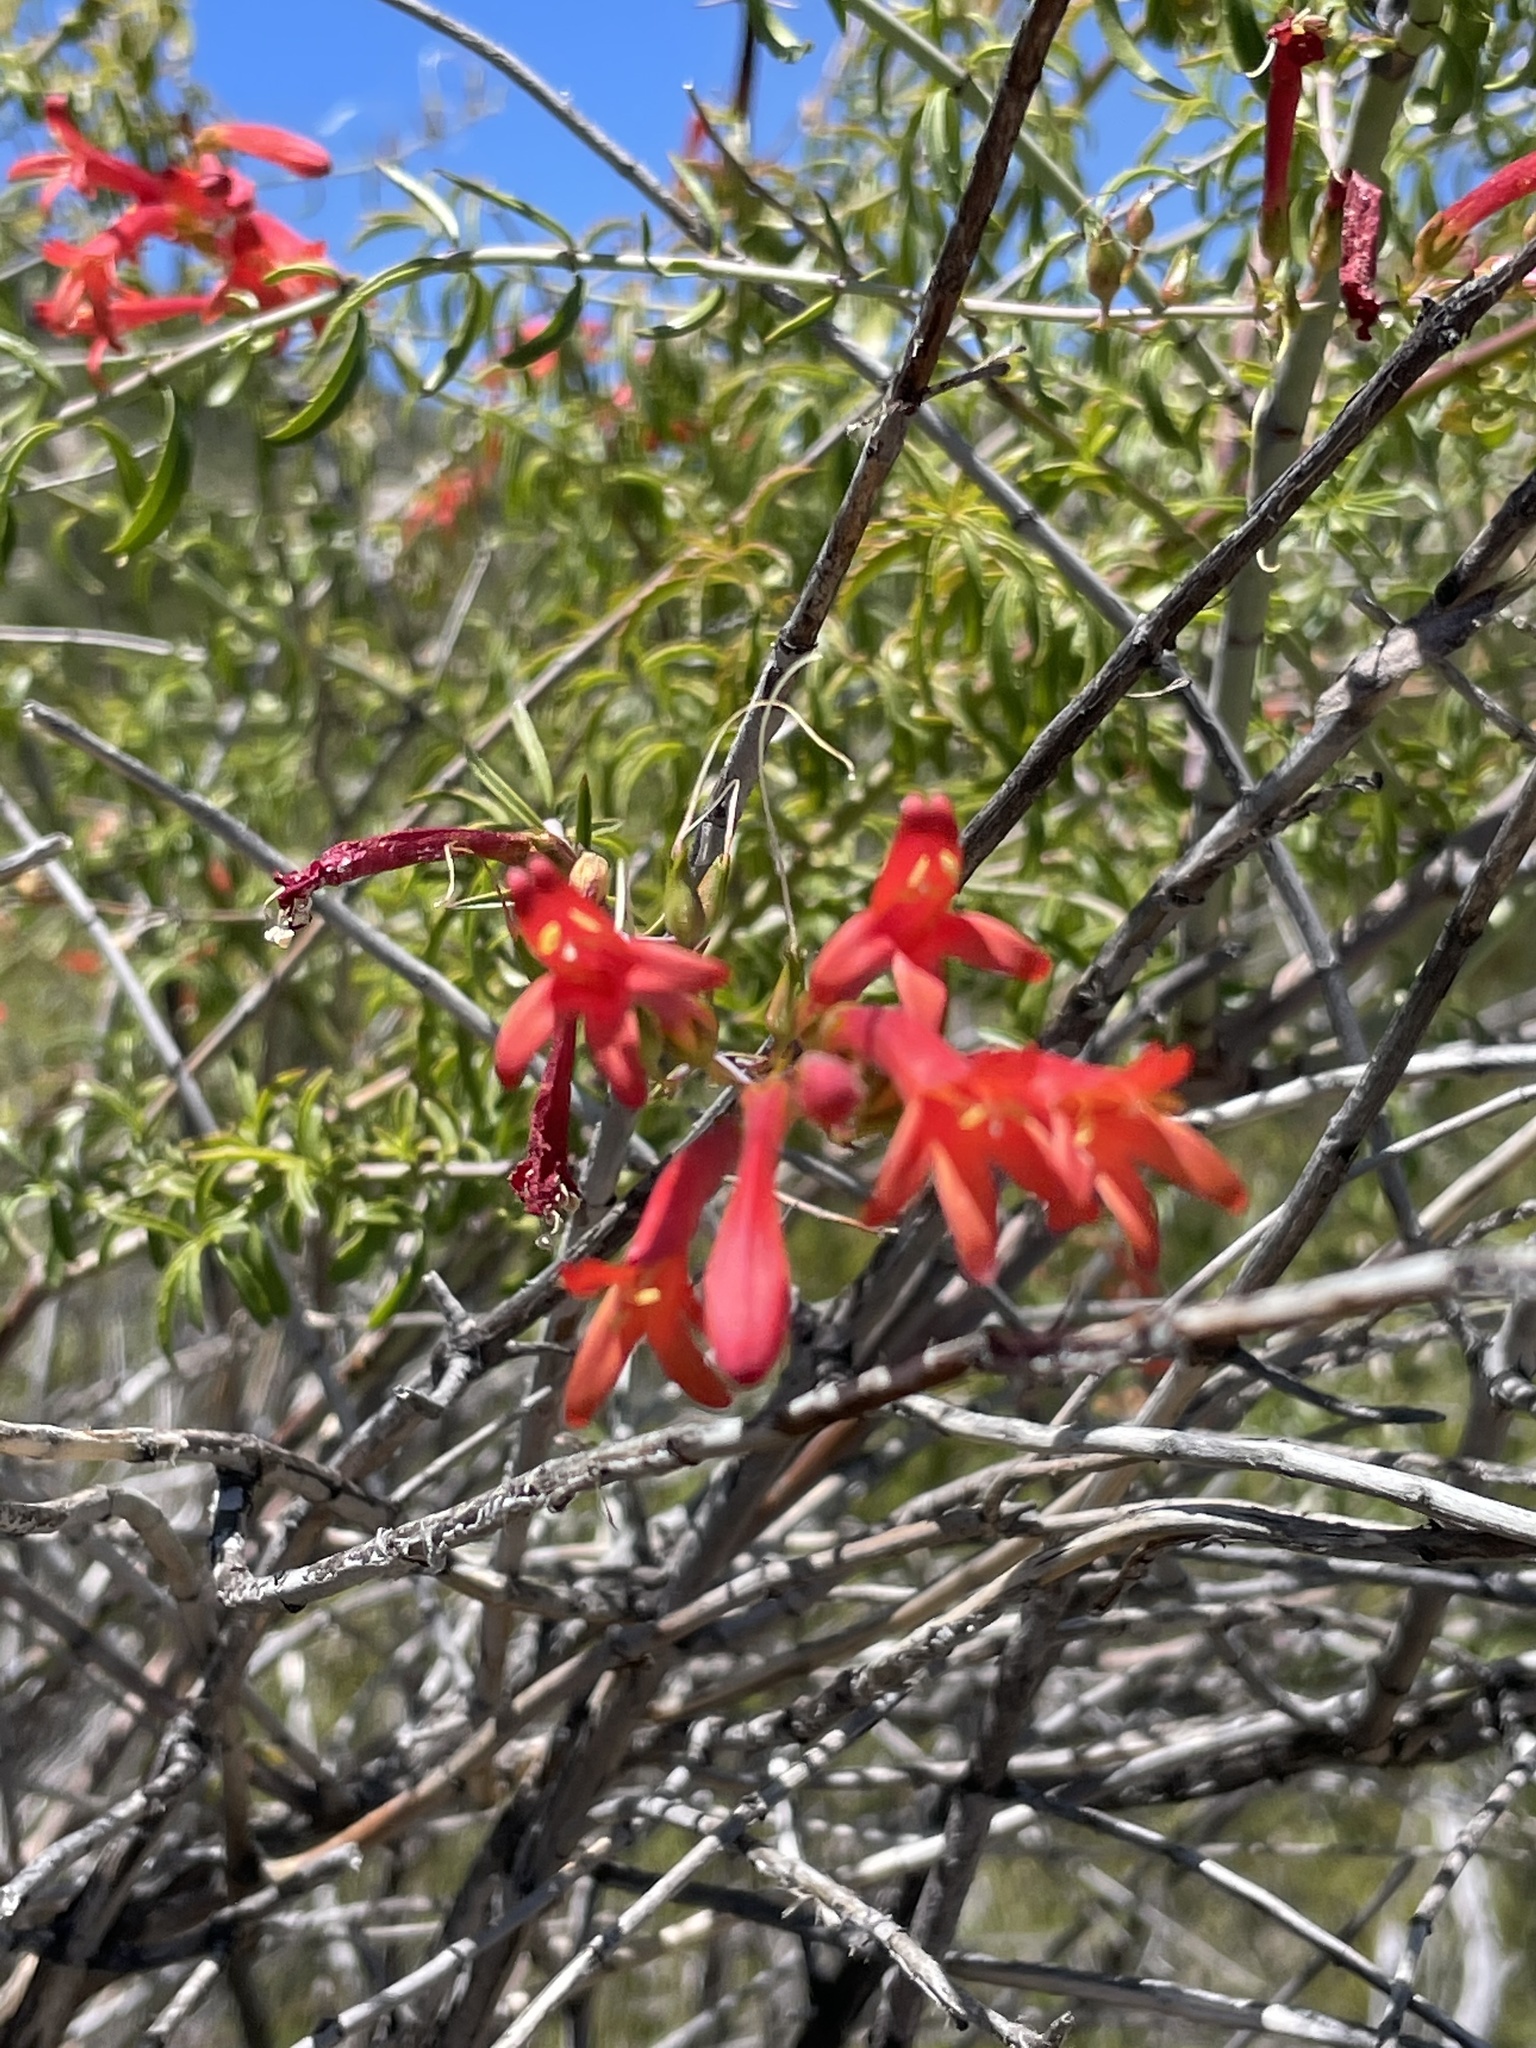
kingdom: Plantae
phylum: Tracheophyta
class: Magnoliopsida
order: Lamiales
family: Plantaginaceae
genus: Keckiella
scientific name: Keckiella ternata
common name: Scarlet keckiella
